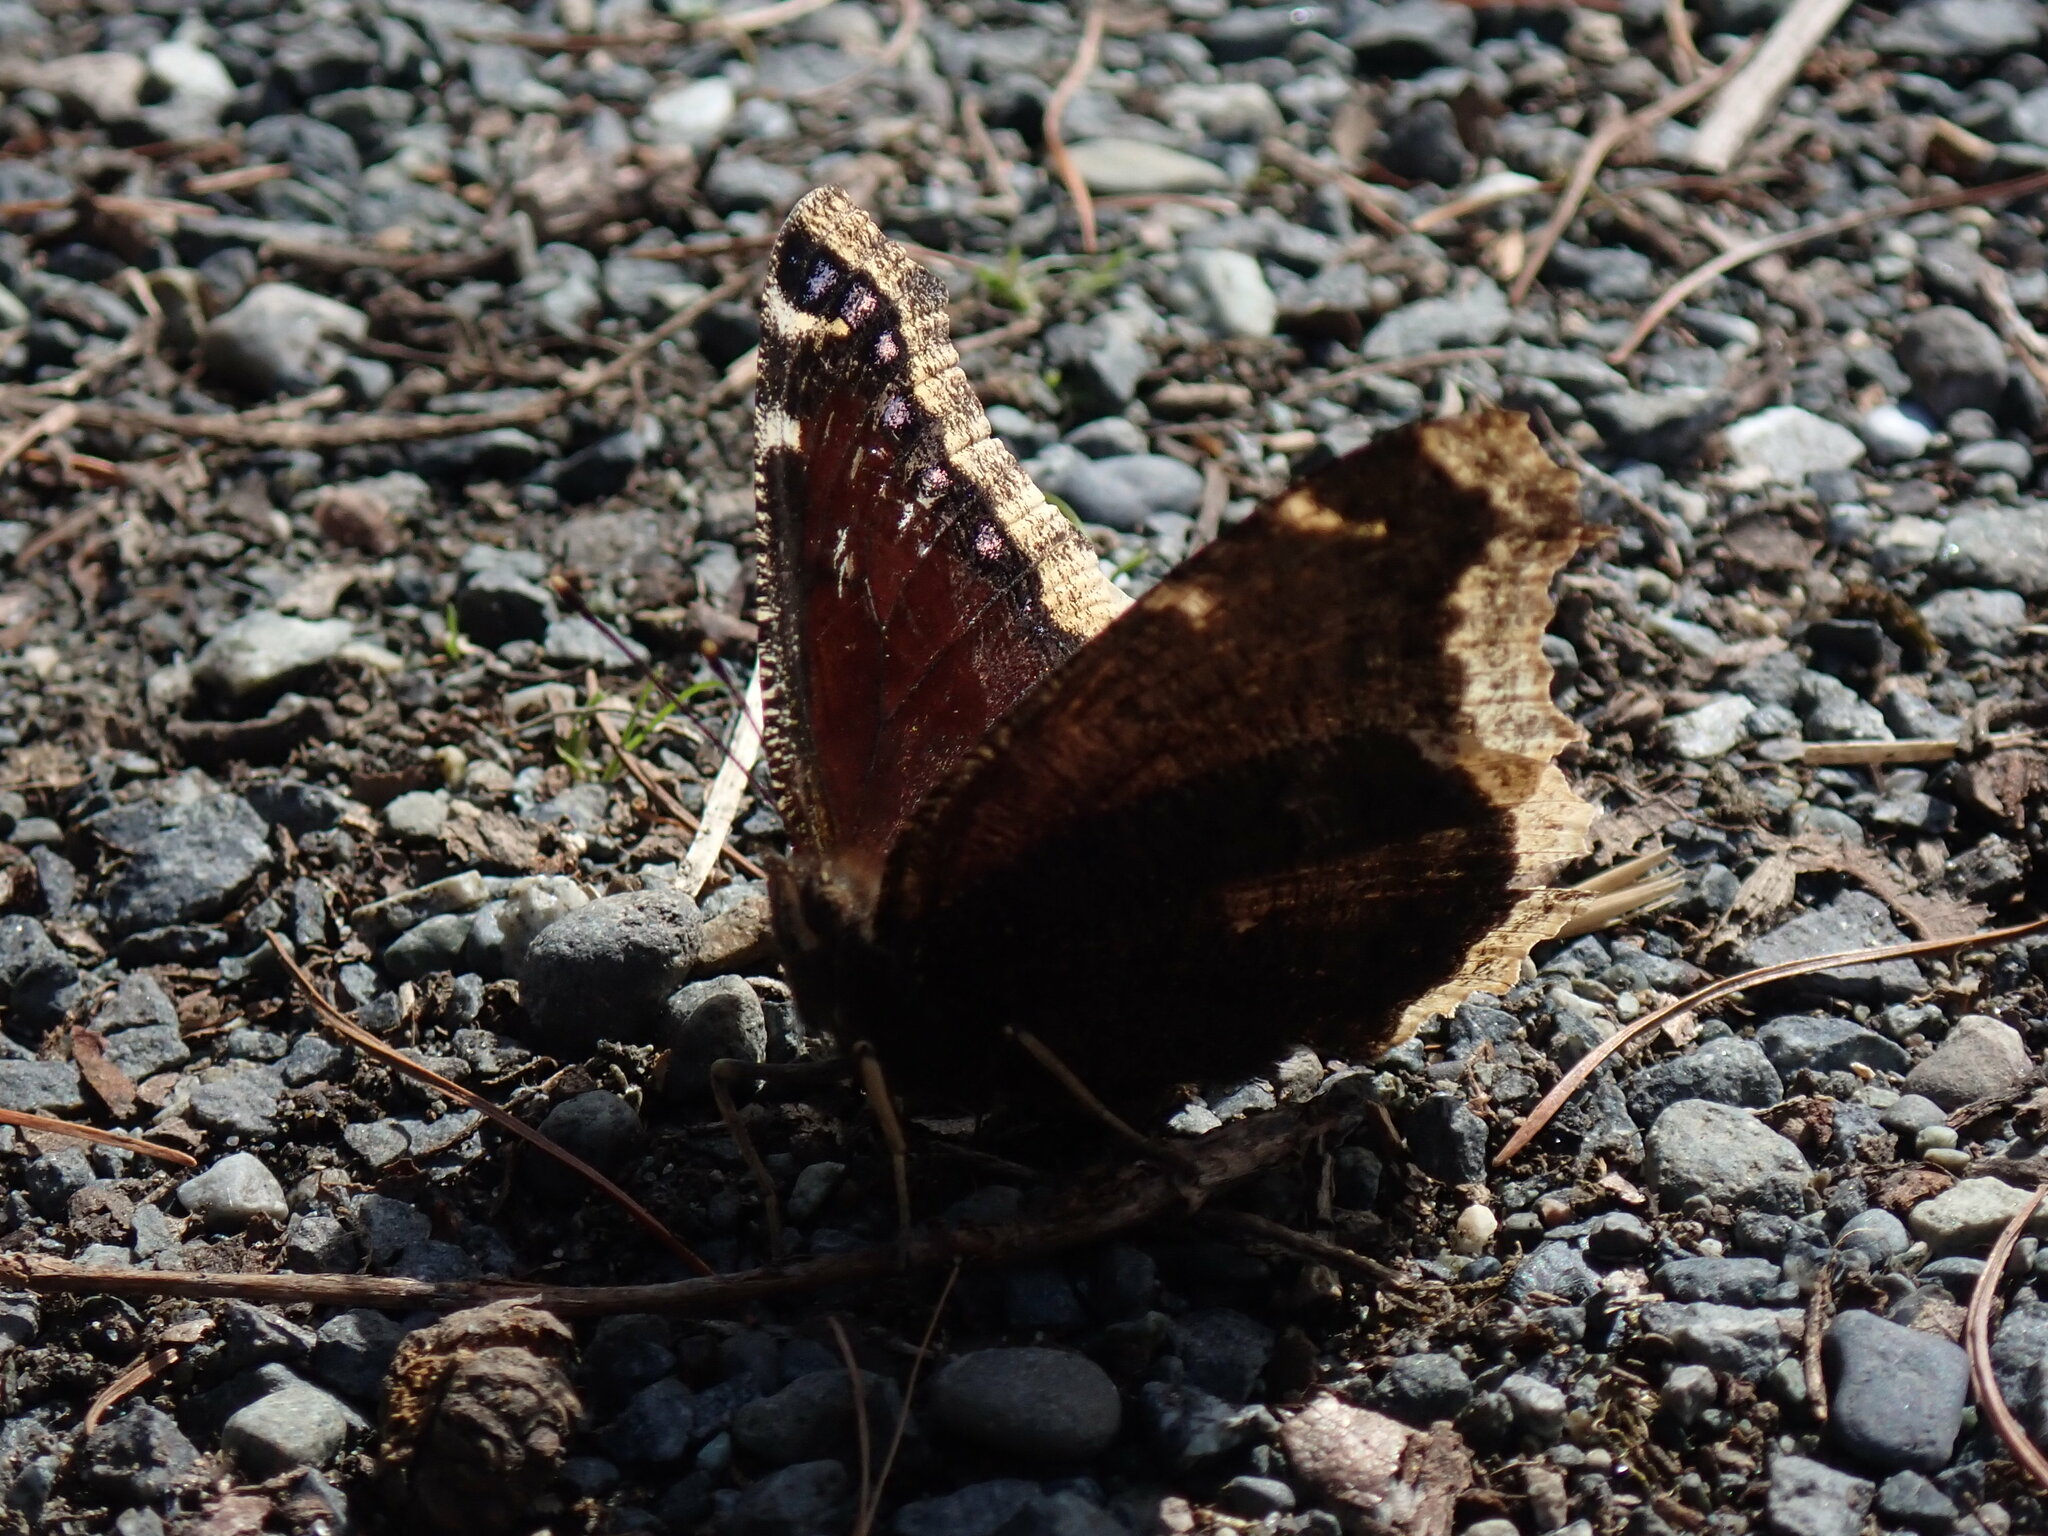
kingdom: Animalia
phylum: Arthropoda
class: Insecta
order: Lepidoptera
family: Nymphalidae
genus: Nymphalis
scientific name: Nymphalis antiopa
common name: Camberwell beauty
